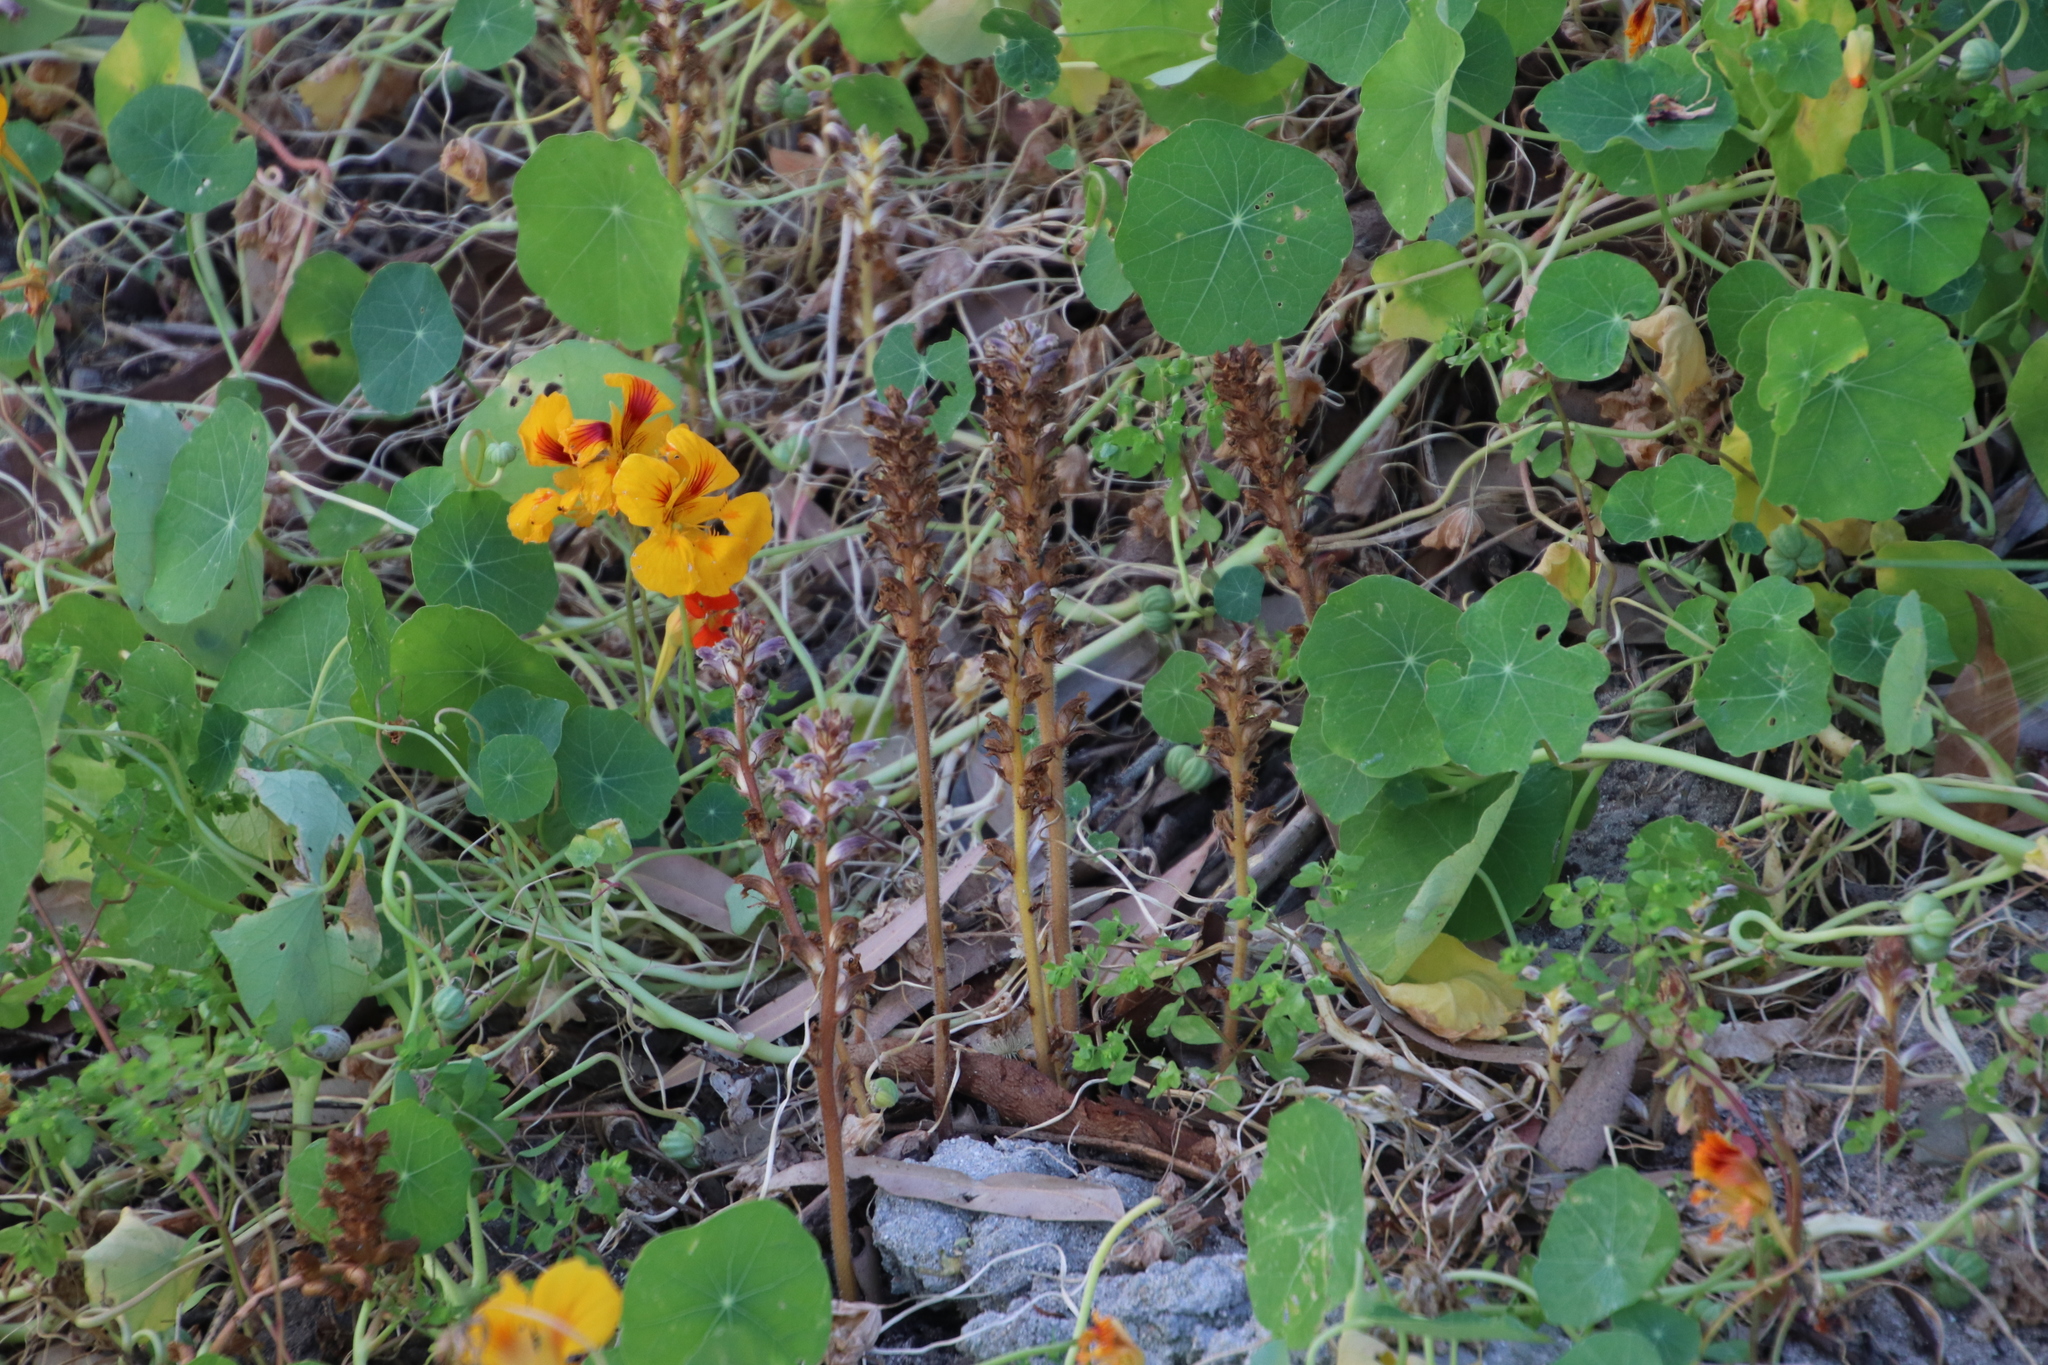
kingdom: Plantae
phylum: Tracheophyta
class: Magnoliopsida
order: Lamiales
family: Orobanchaceae
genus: Orobanche
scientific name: Orobanche minor
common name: Common broomrape
